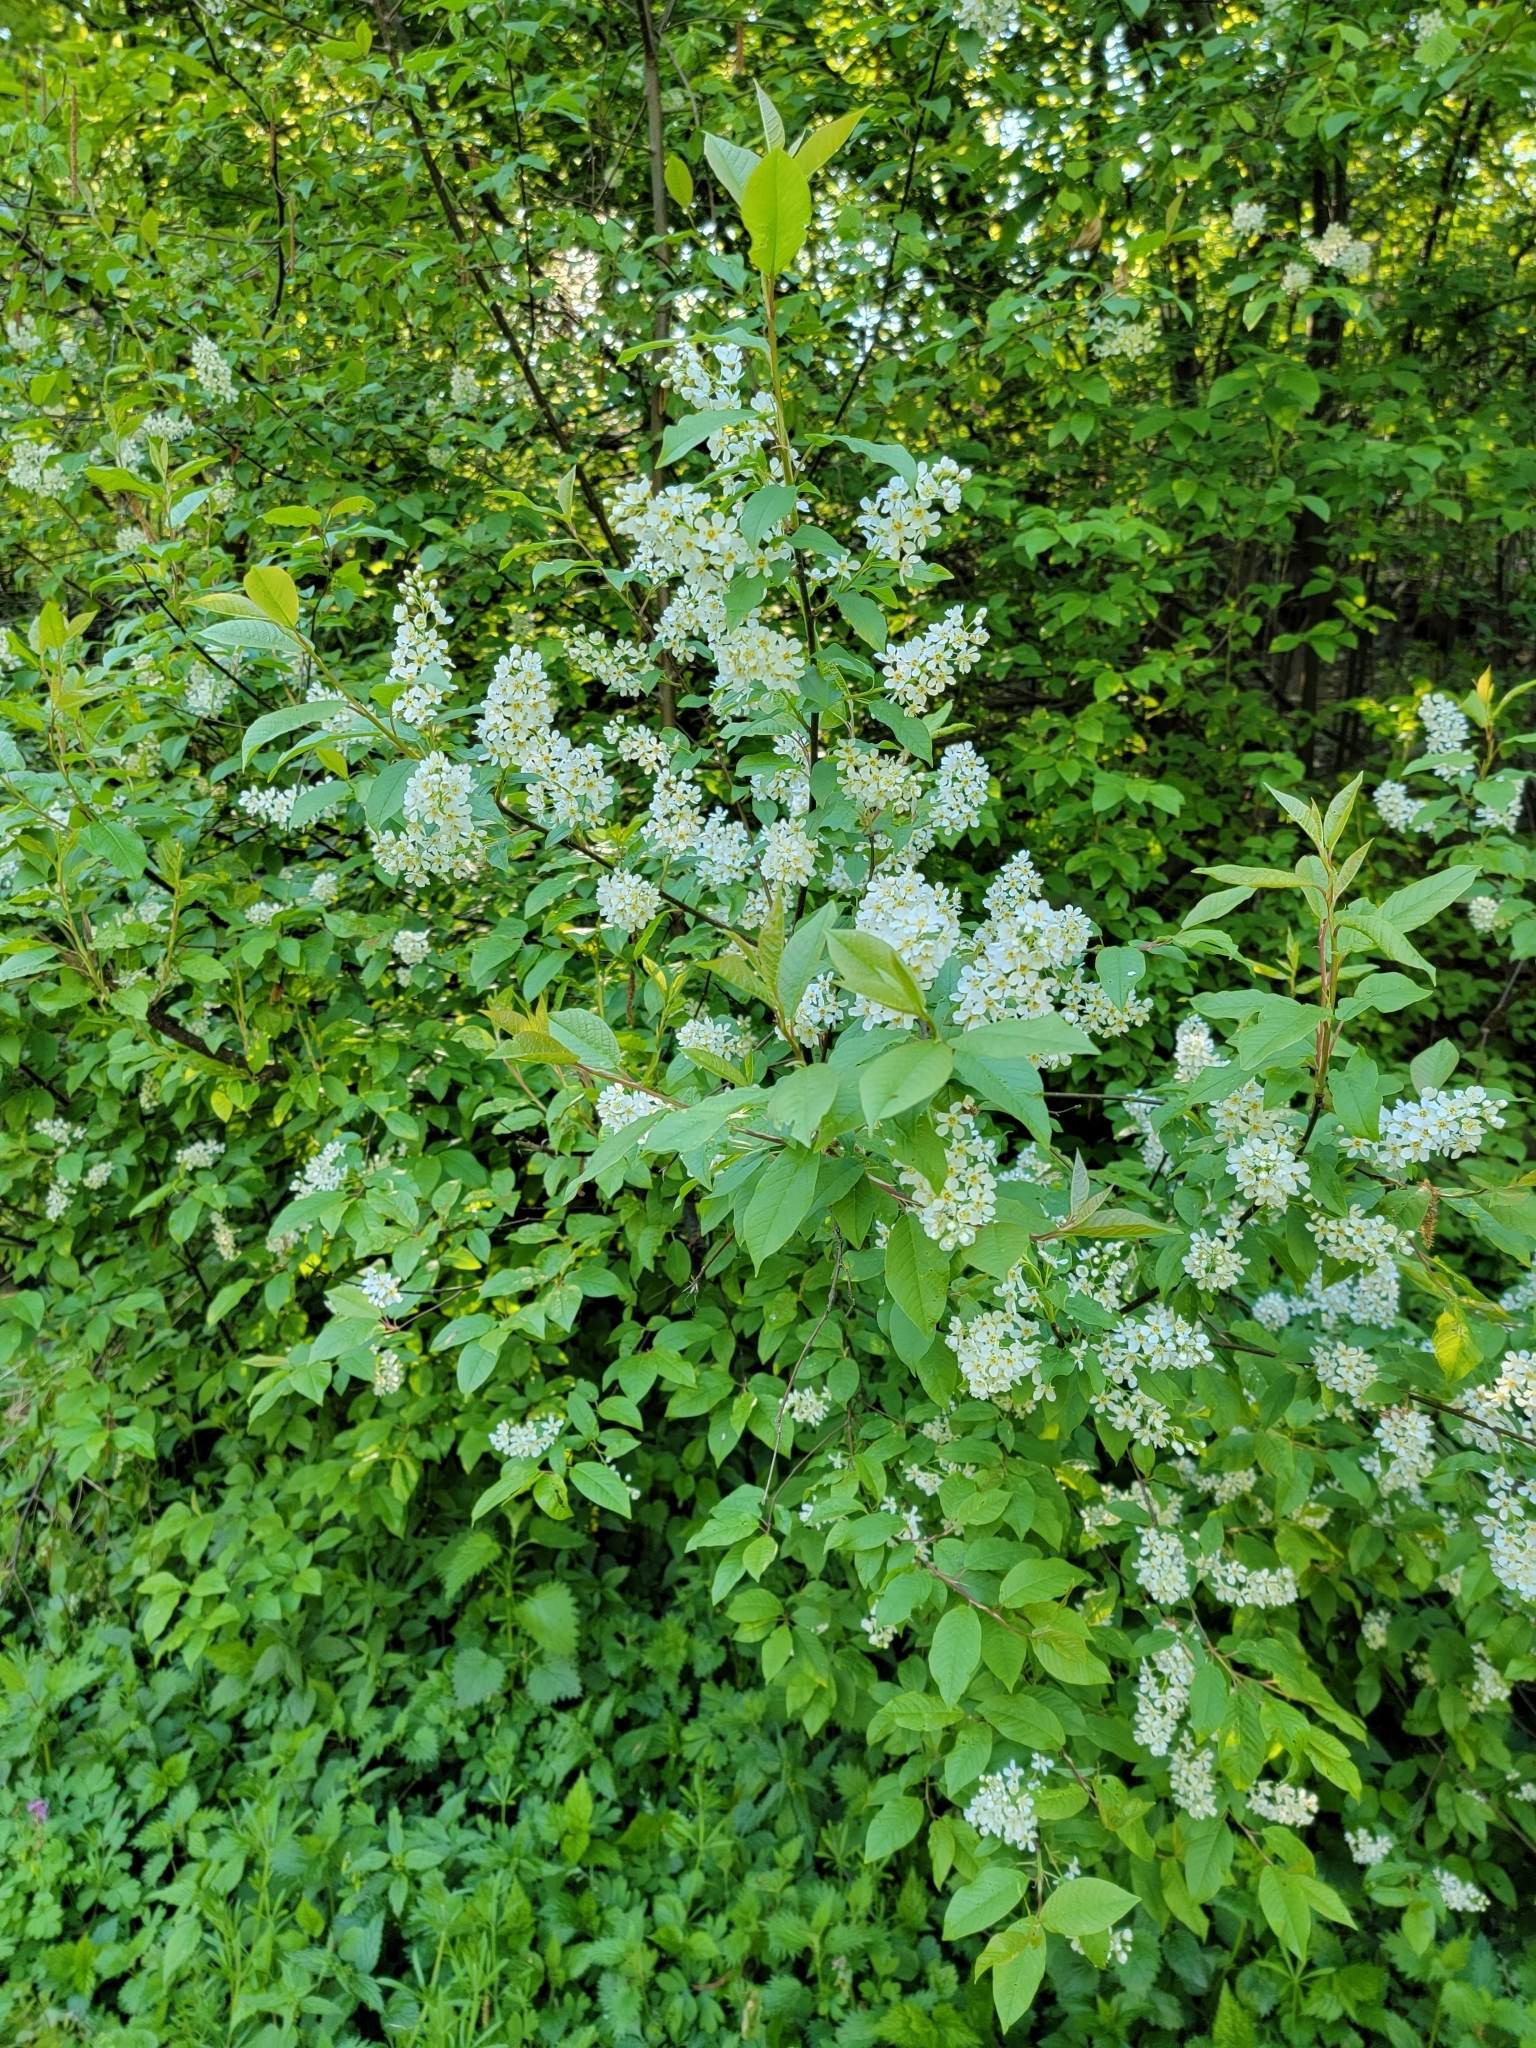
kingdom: Plantae
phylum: Tracheophyta
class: Magnoliopsida
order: Rosales
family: Rosaceae
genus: Prunus
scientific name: Prunus padus
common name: Bird cherry
